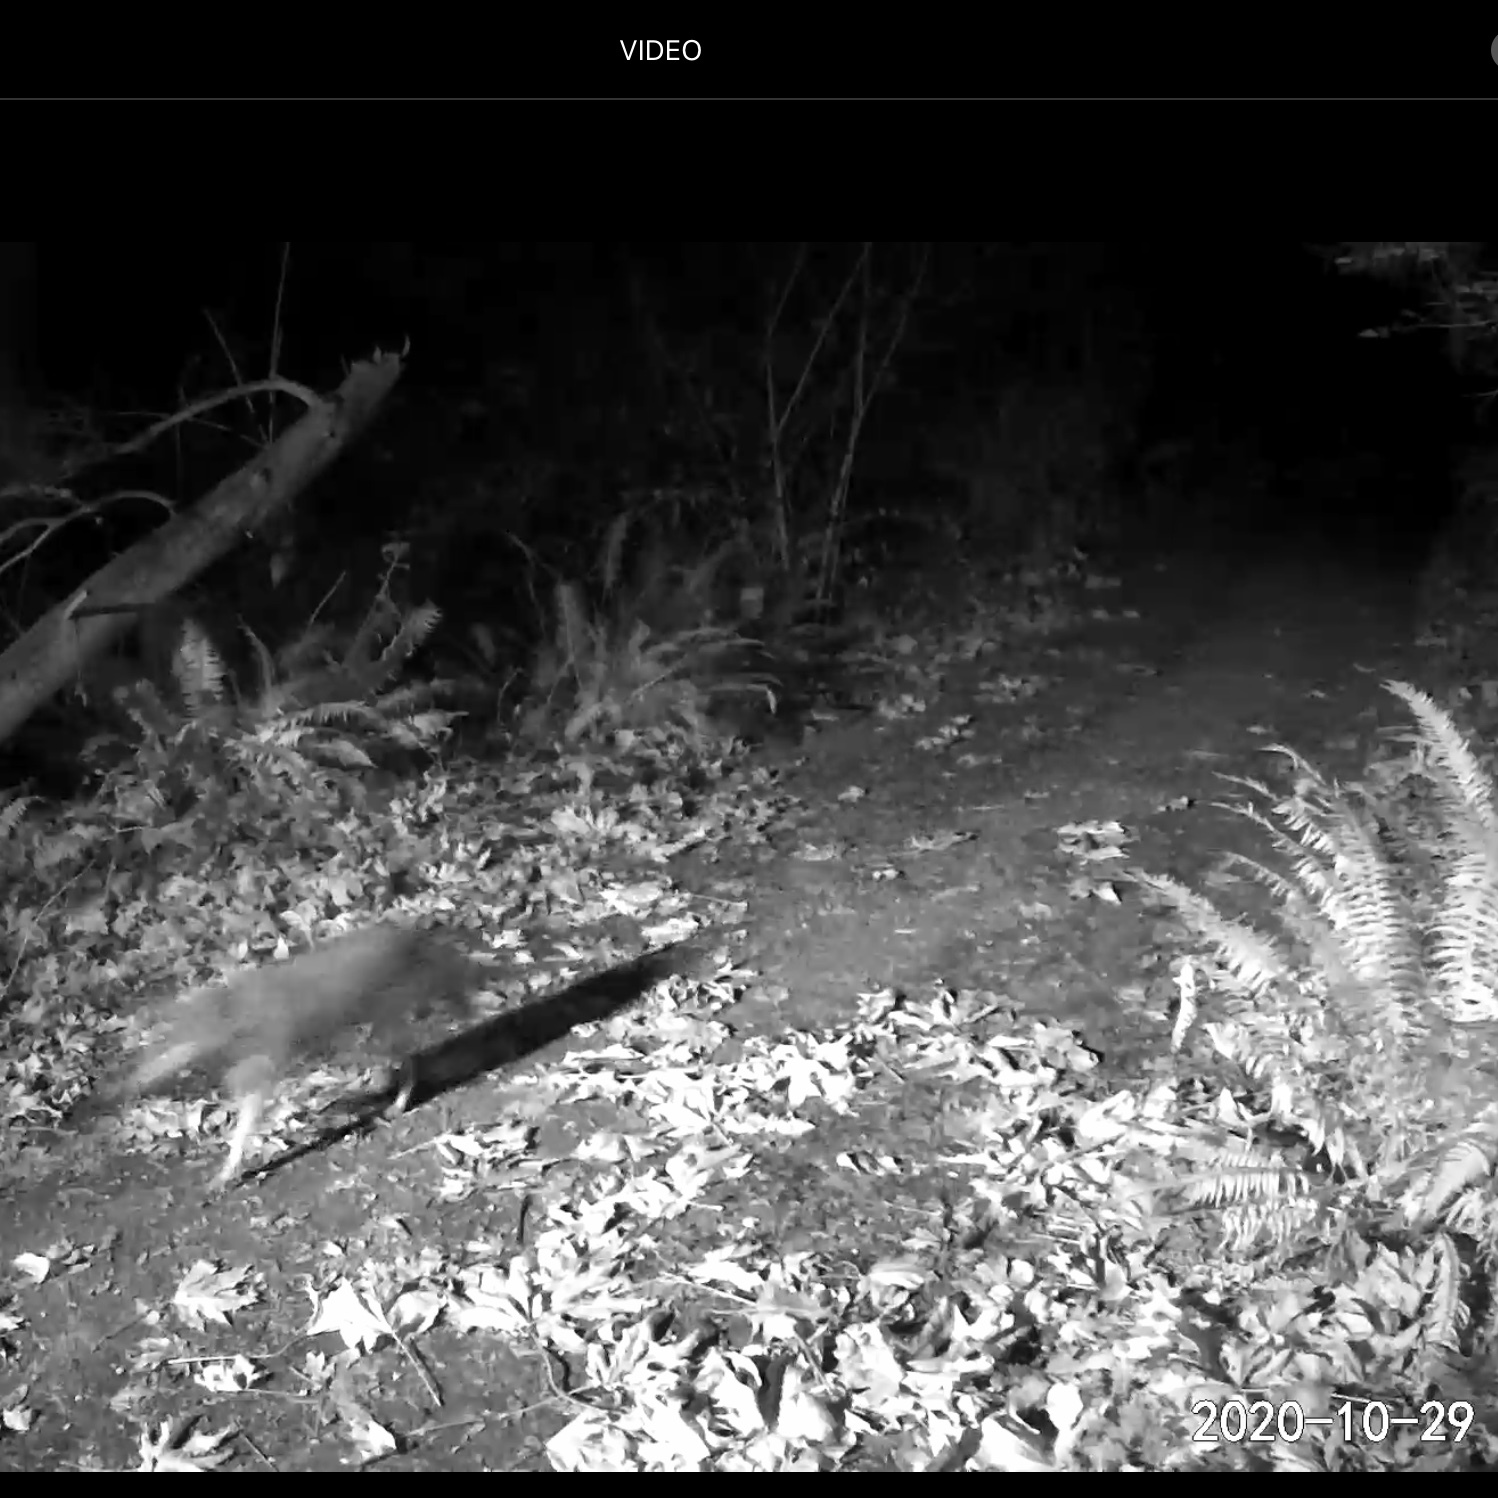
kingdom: Animalia
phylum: Chordata
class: Mammalia
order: Carnivora
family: Canidae
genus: Canis
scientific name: Canis latrans
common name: Coyote
